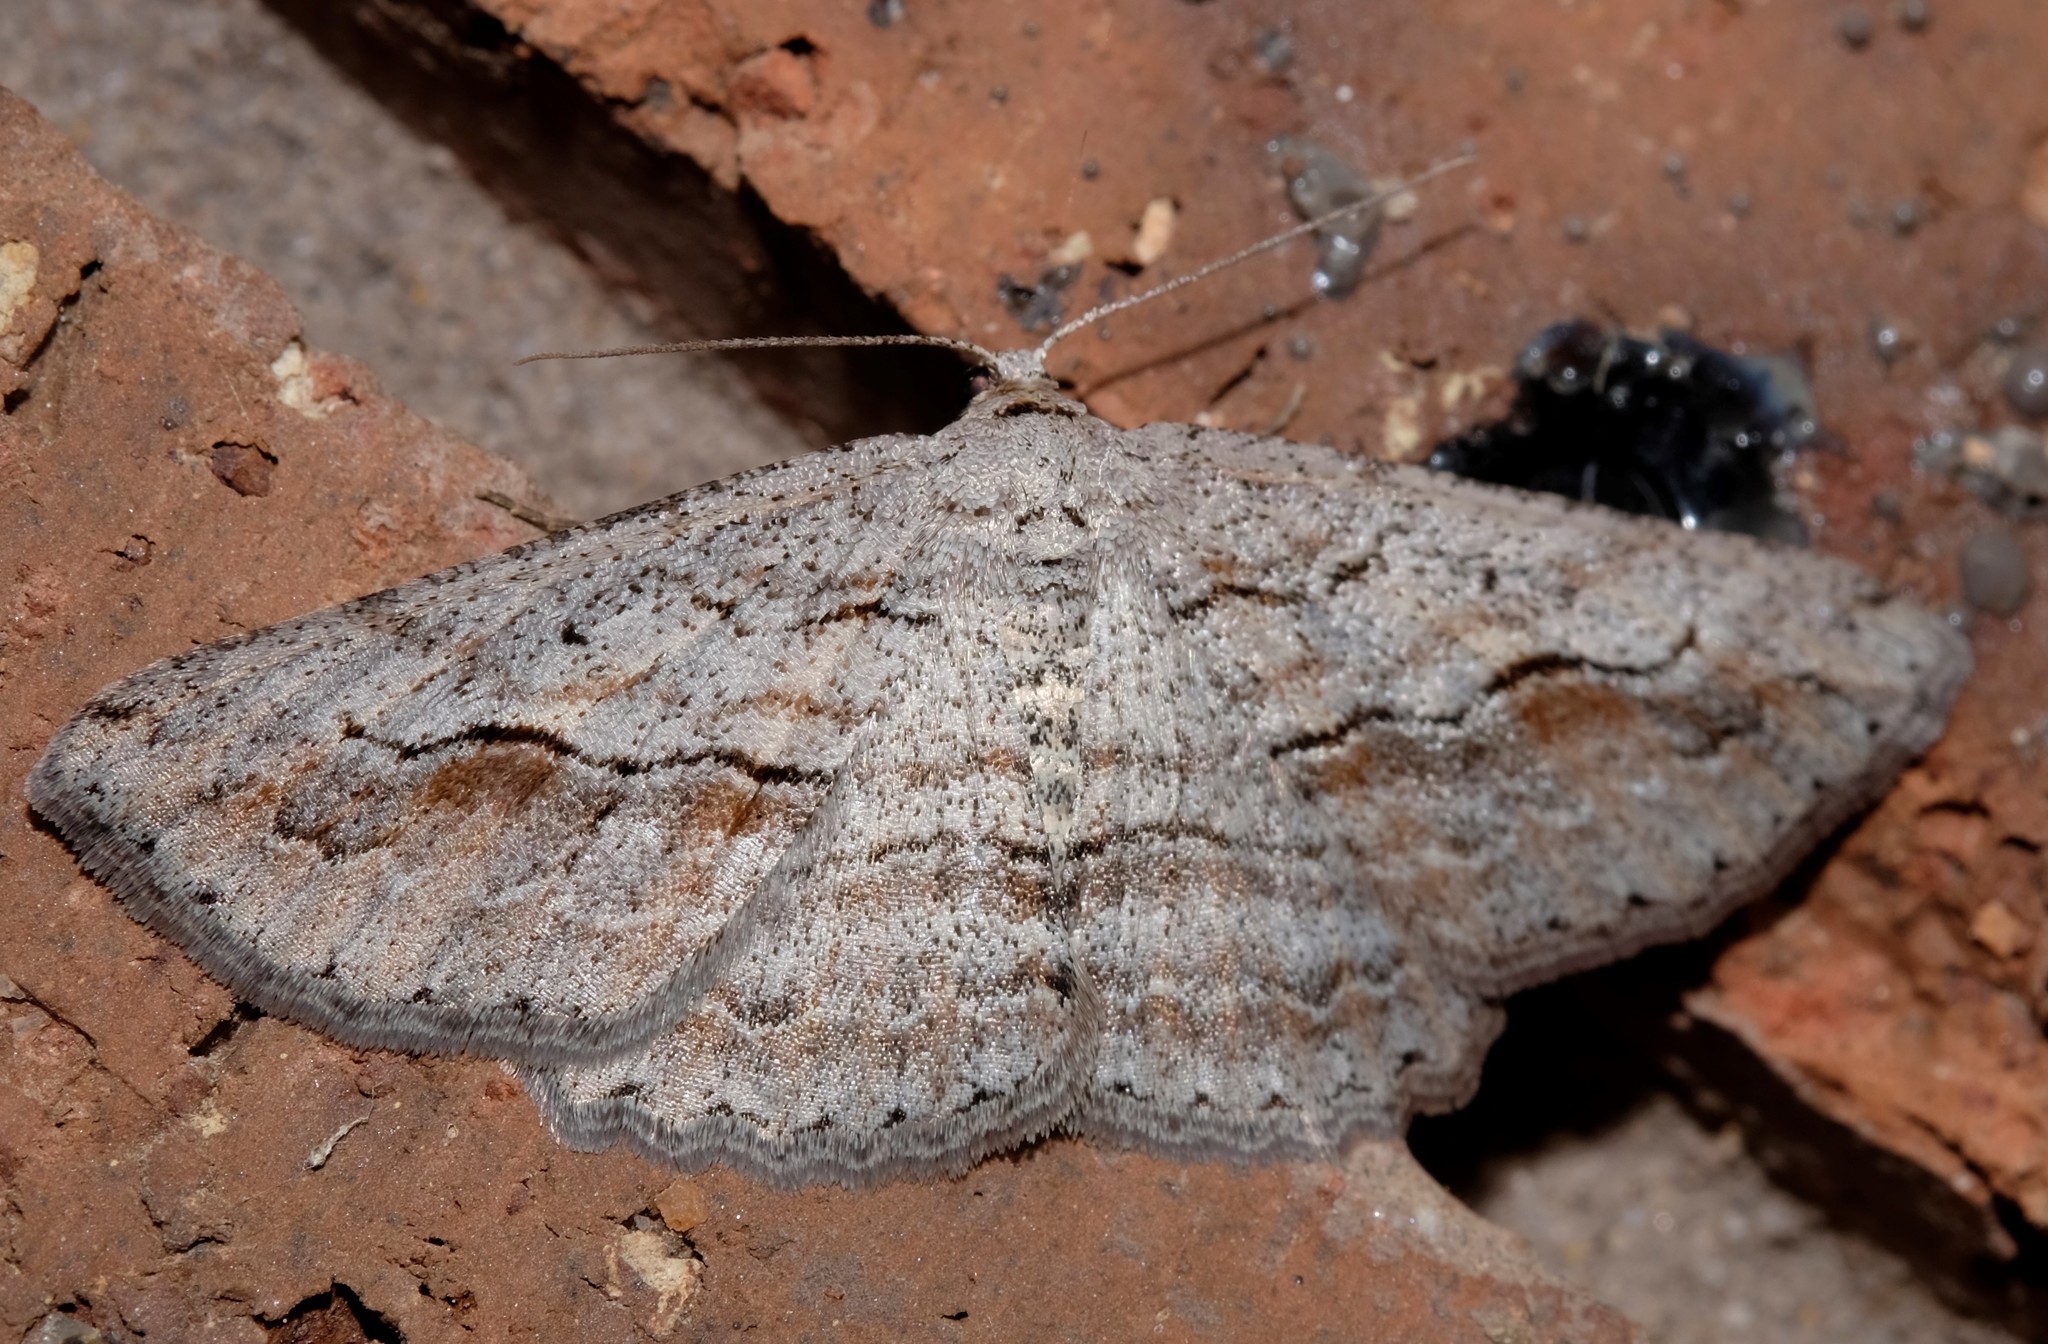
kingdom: Animalia
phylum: Arthropoda
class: Insecta
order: Lepidoptera
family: Geometridae
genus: Syneora
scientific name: Syneora mundifera
